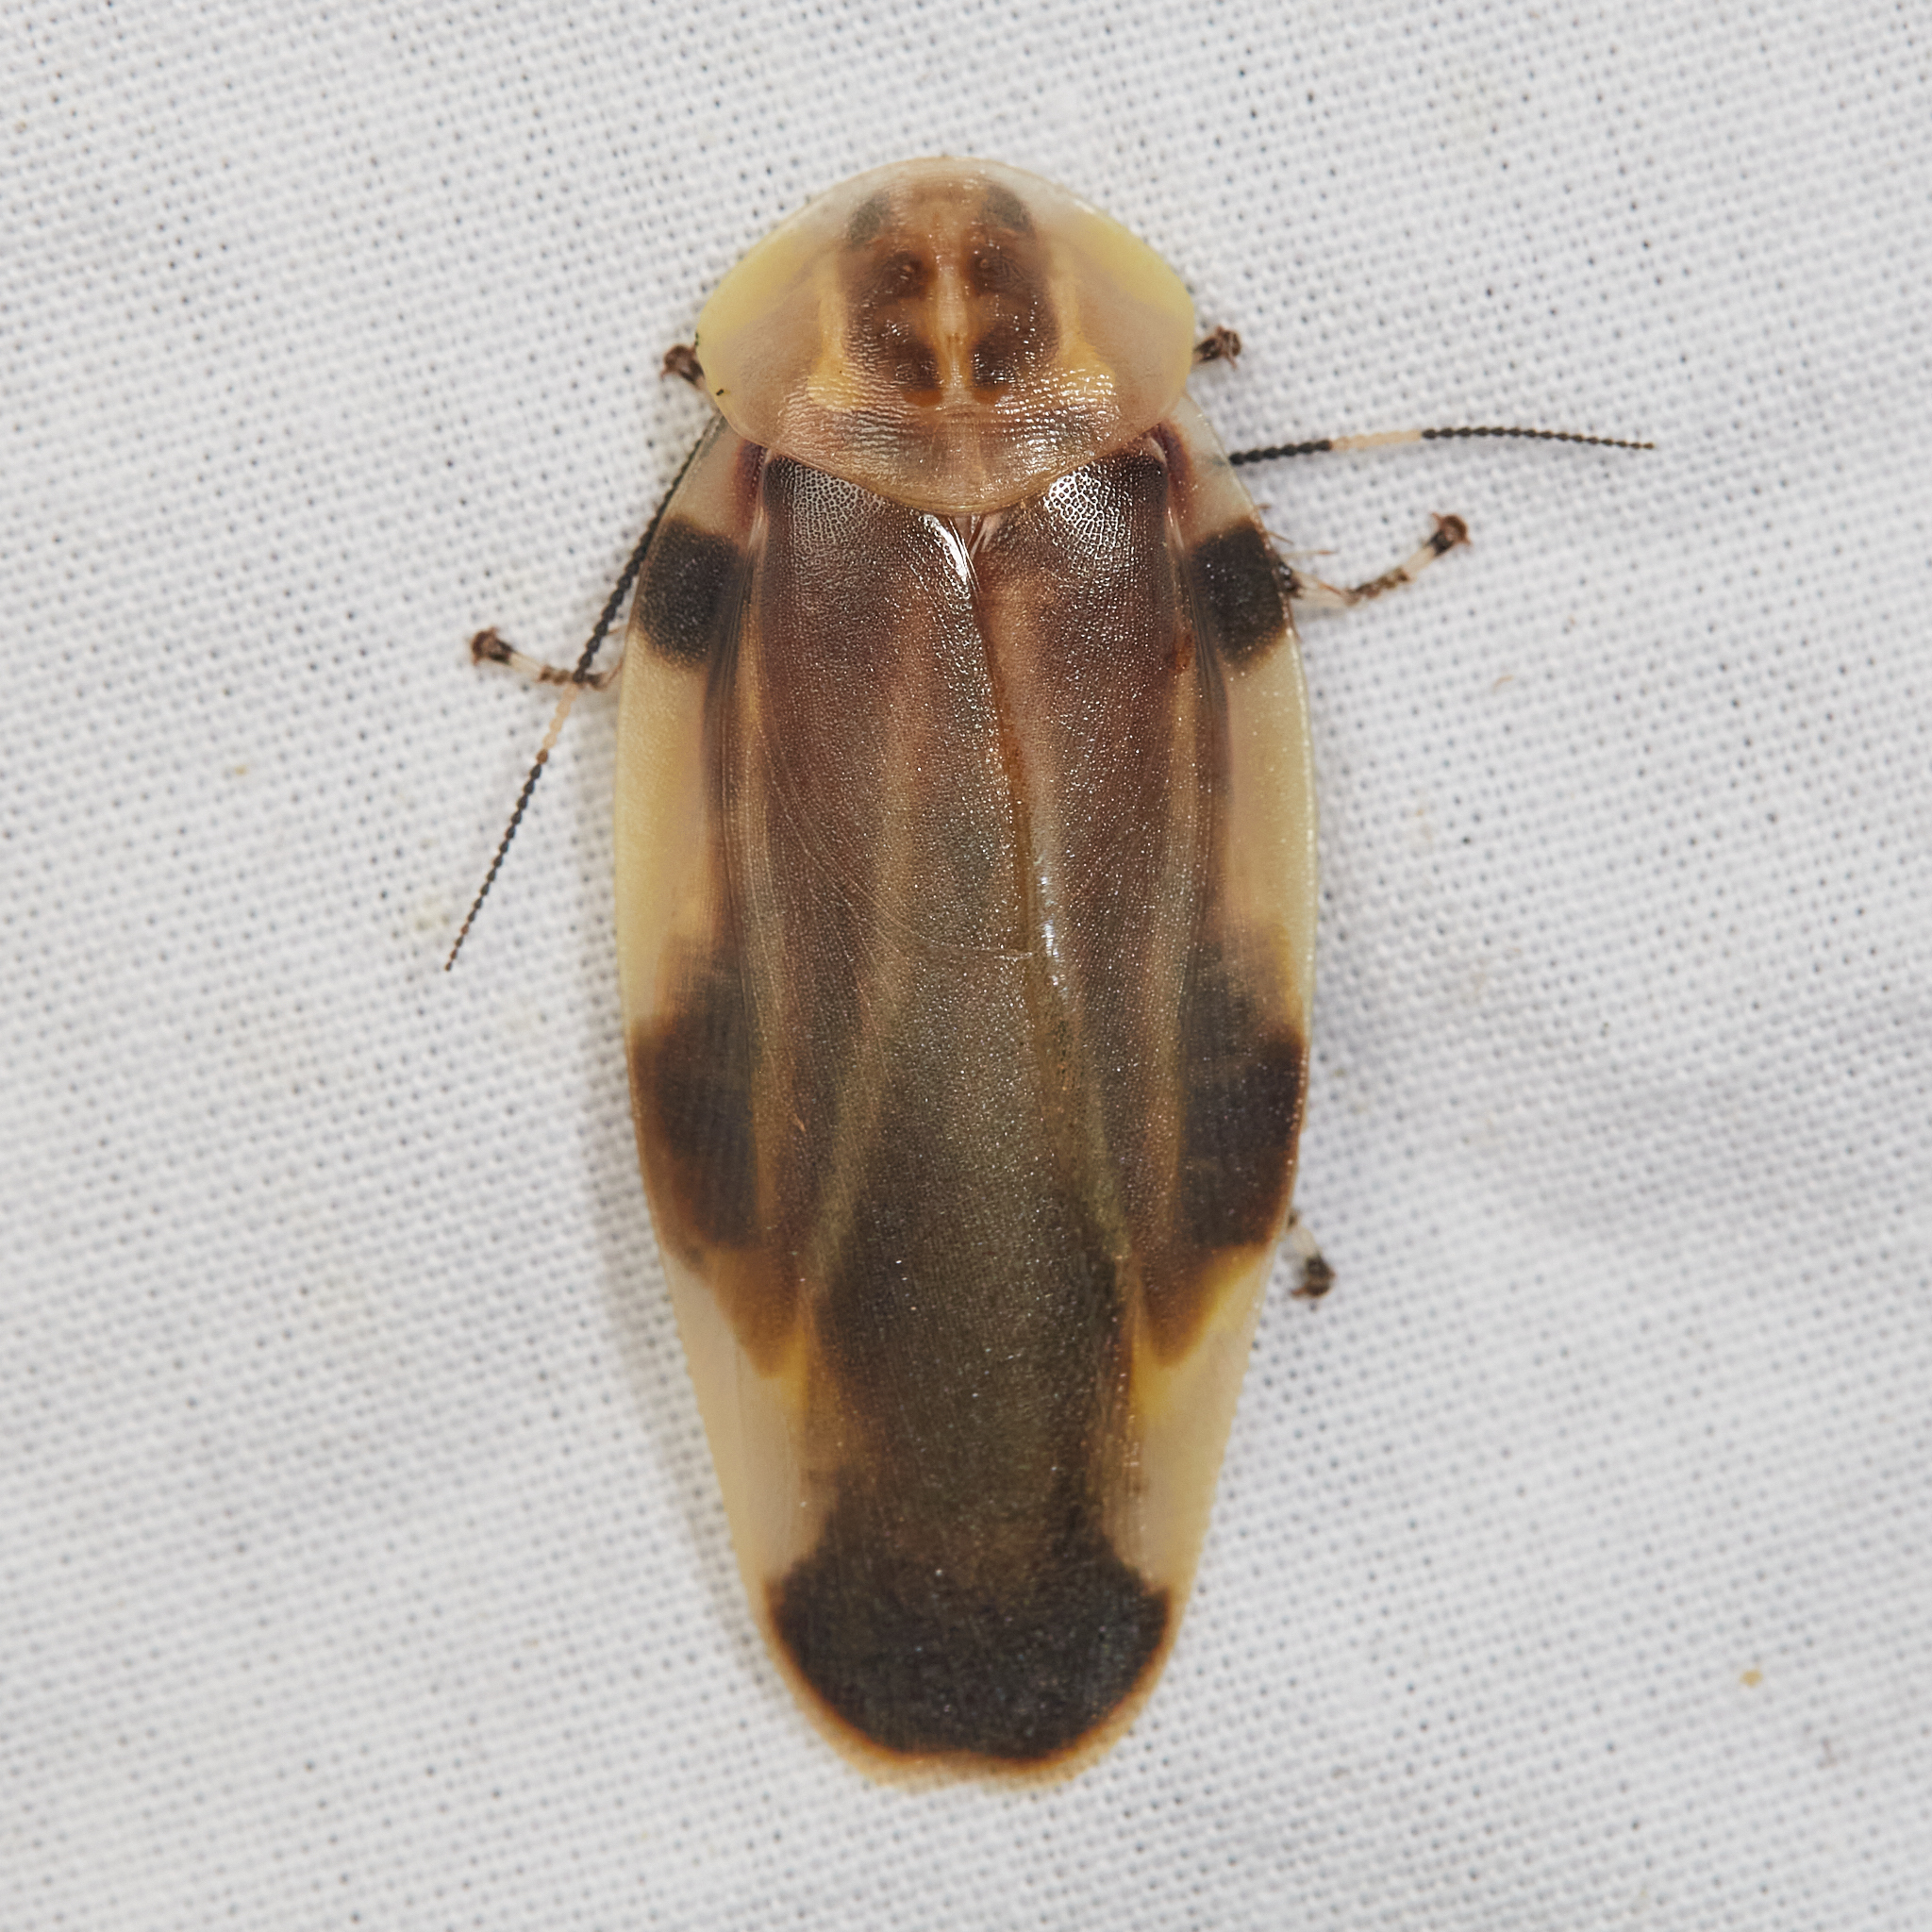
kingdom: Animalia
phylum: Arthropoda
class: Insecta
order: Blattodea
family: Blaberidae
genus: Achroblatta
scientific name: Achroblatta luteola
